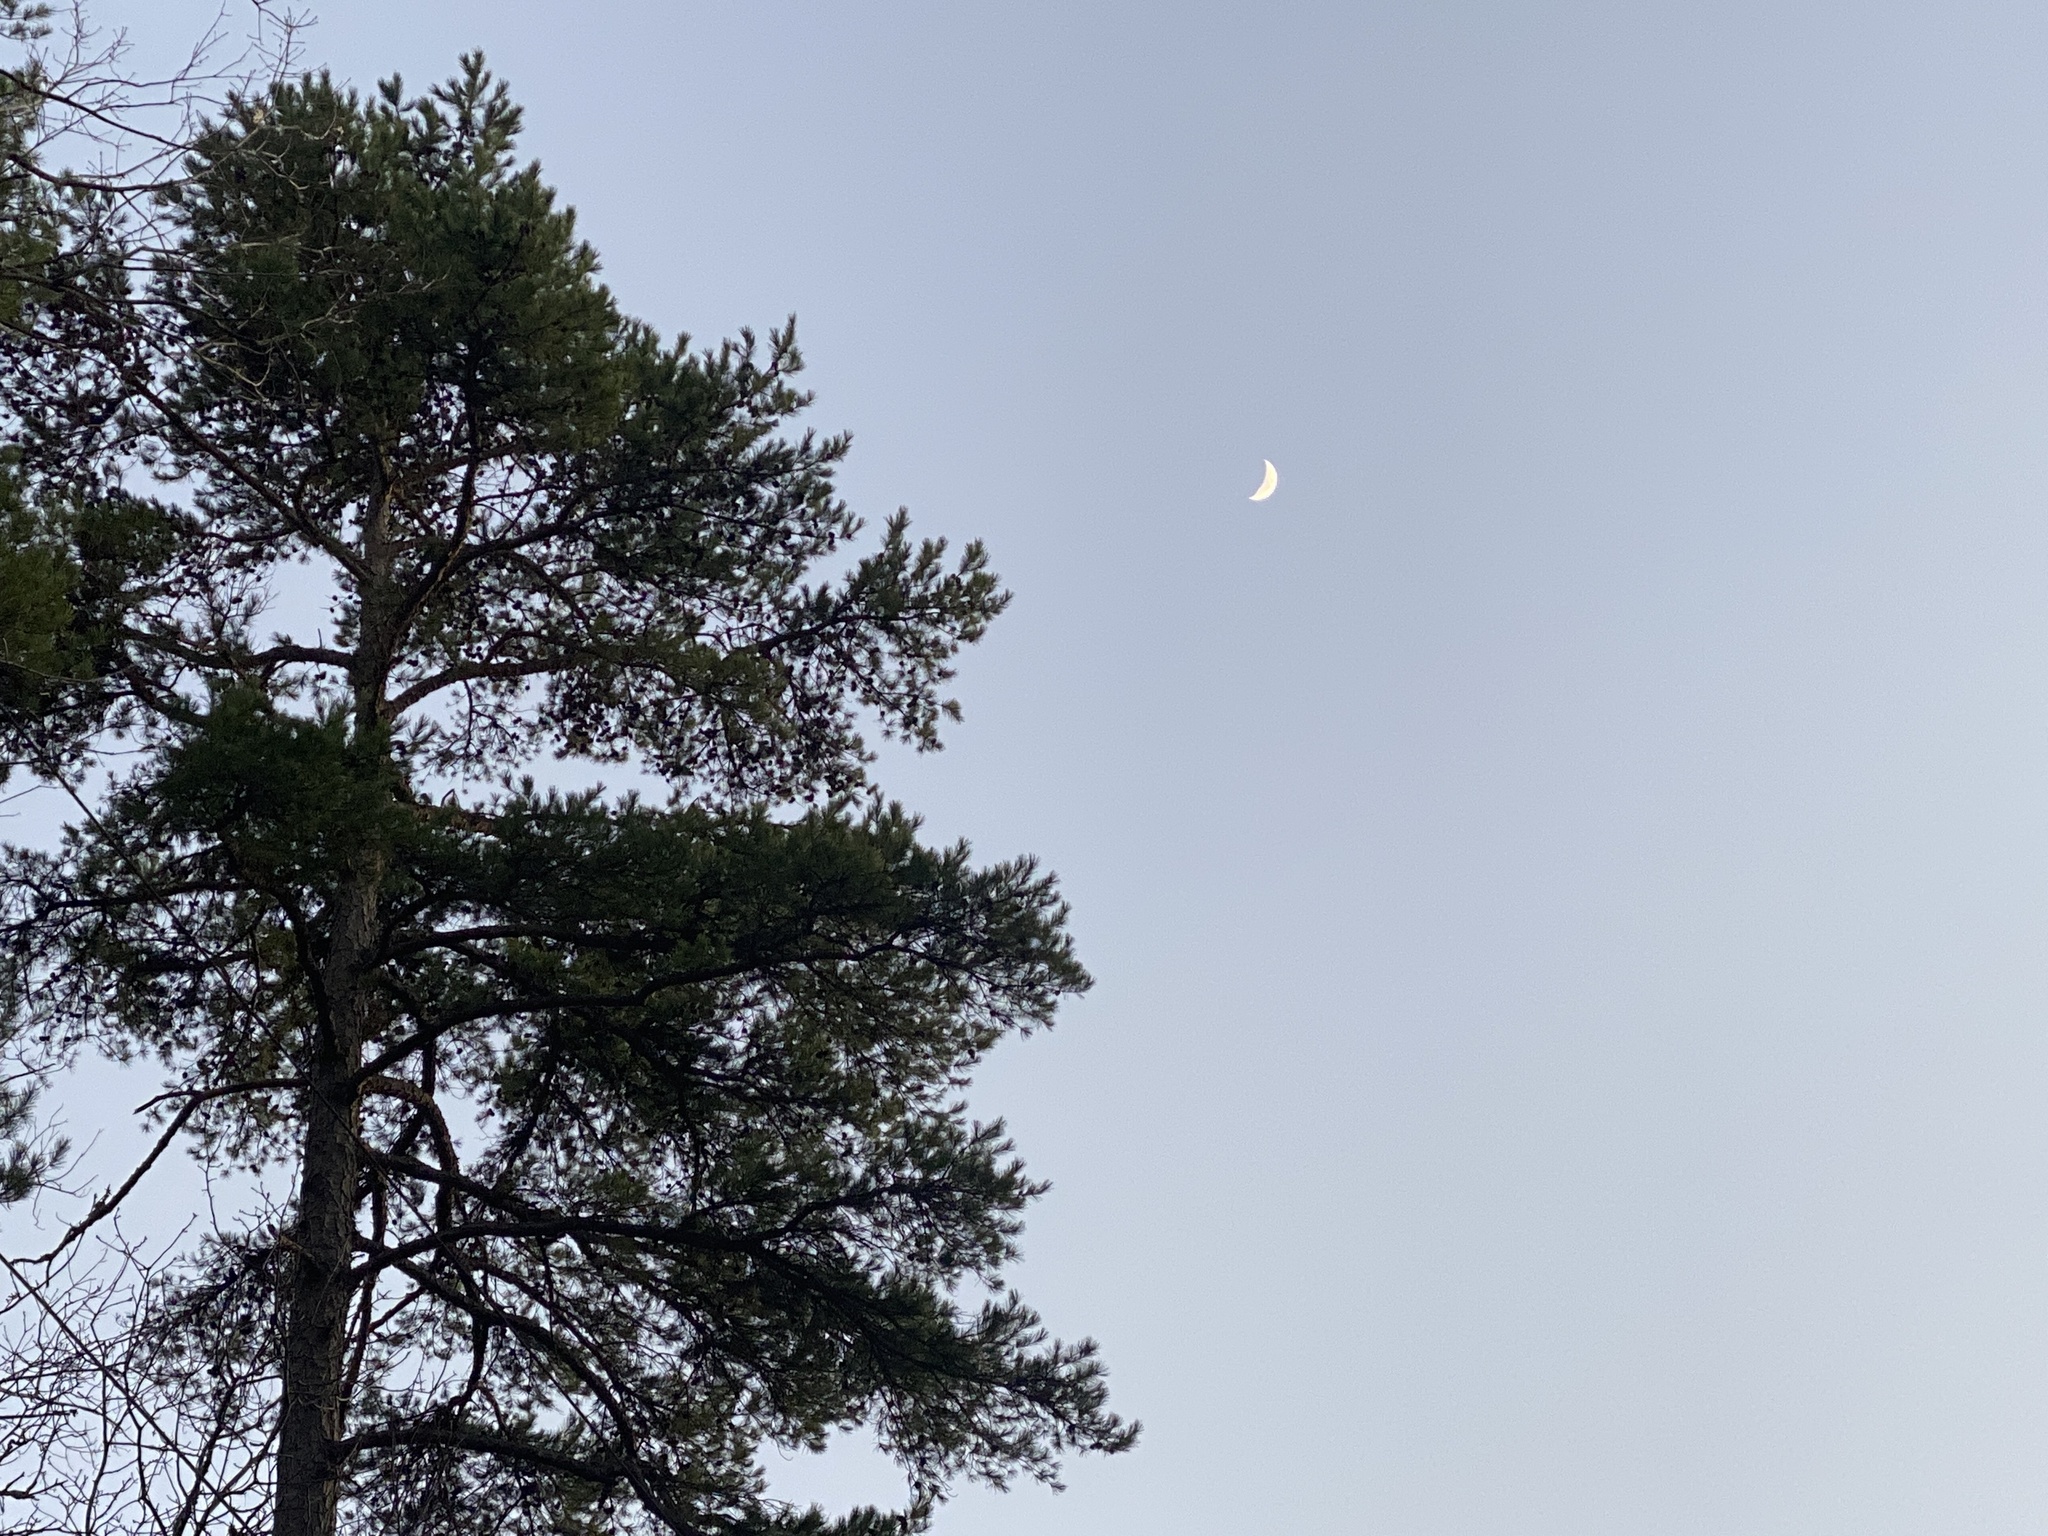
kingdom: Plantae
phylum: Tracheophyta
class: Pinopsida
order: Pinales
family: Pinaceae
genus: Pinus
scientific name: Pinus echinata
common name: Shortleaf pine
